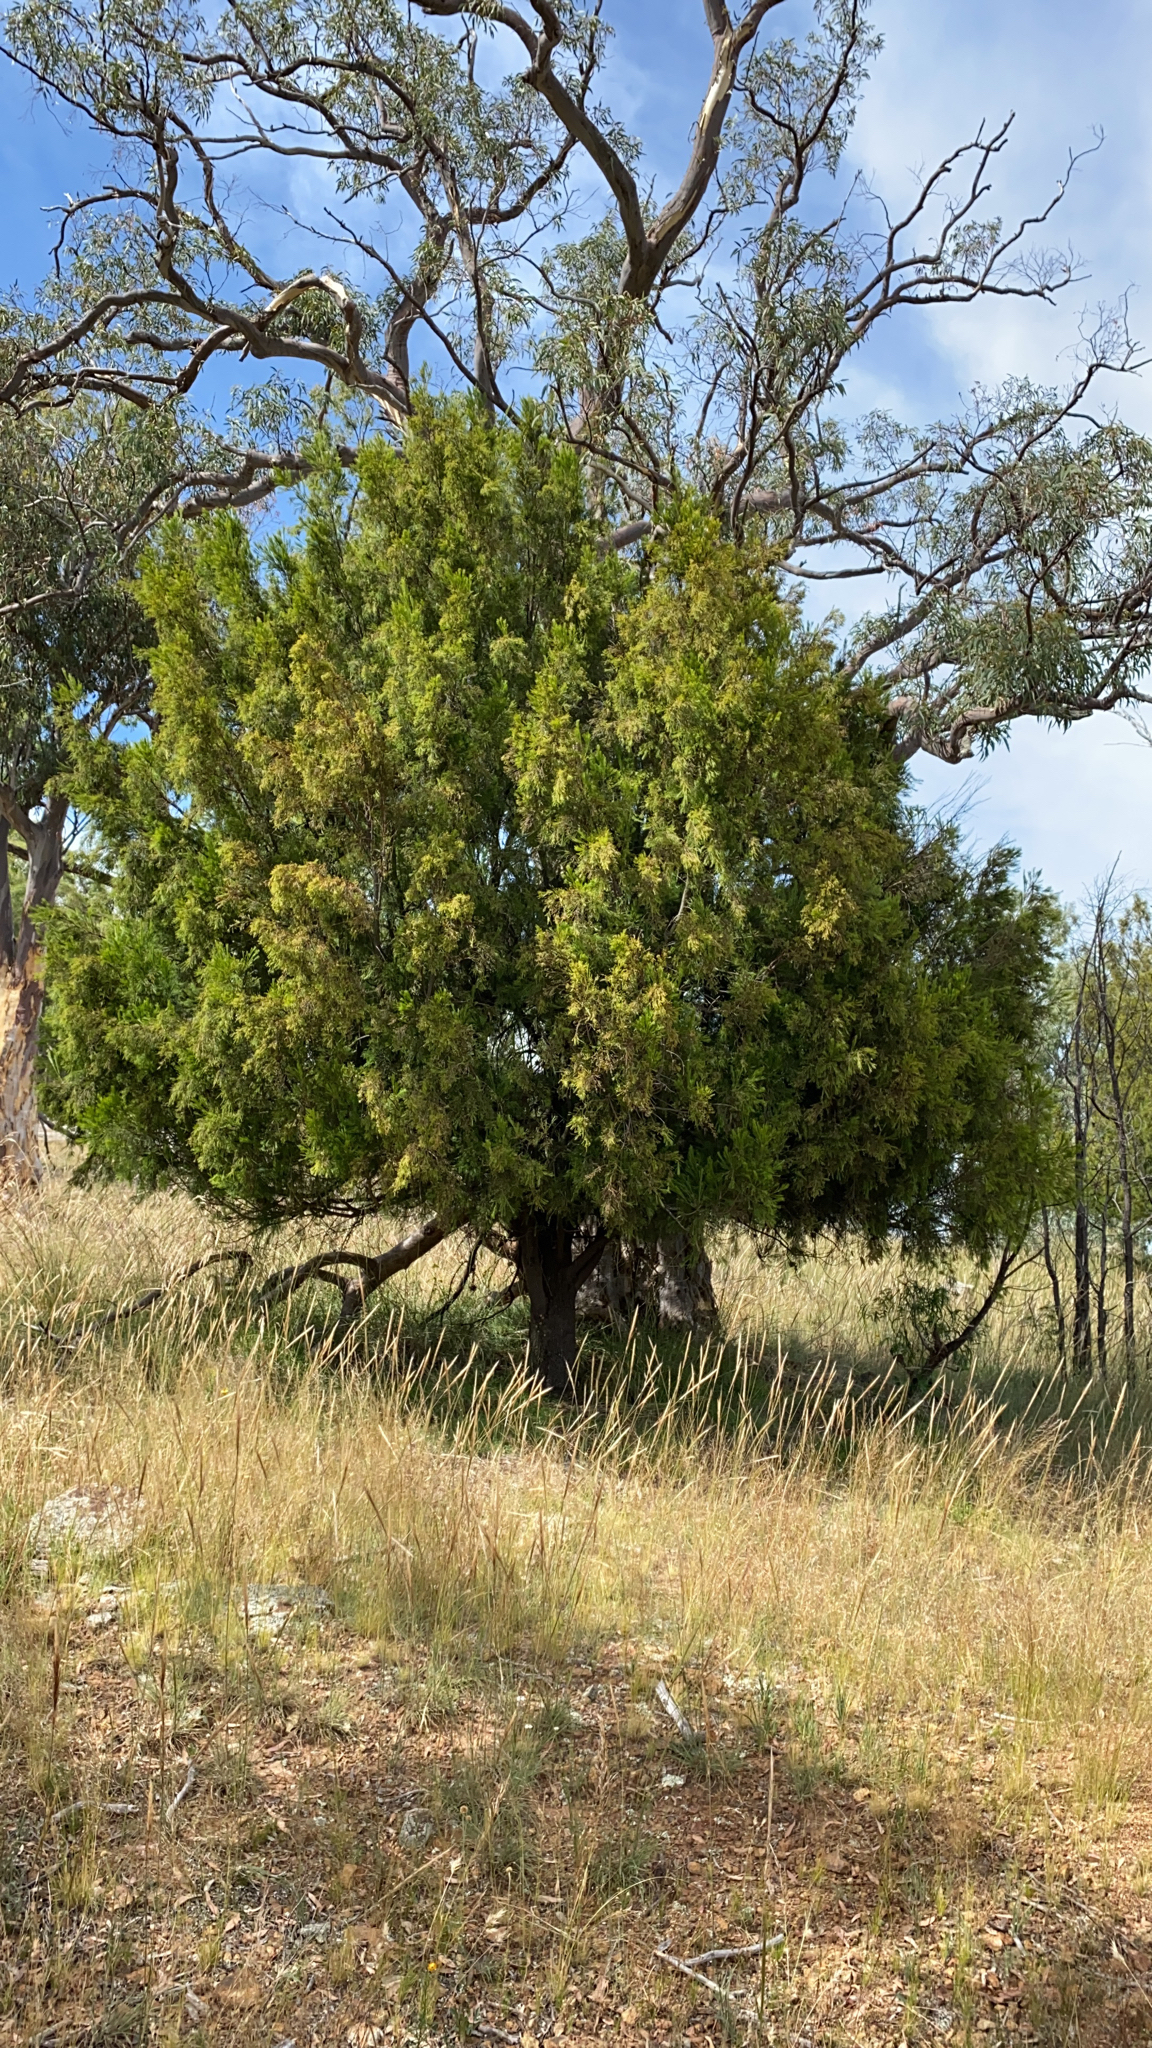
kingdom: Plantae
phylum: Tracheophyta
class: Magnoliopsida
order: Santalales
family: Santalaceae
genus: Exocarpos
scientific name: Exocarpos cupressiformis
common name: Cherry ballart
